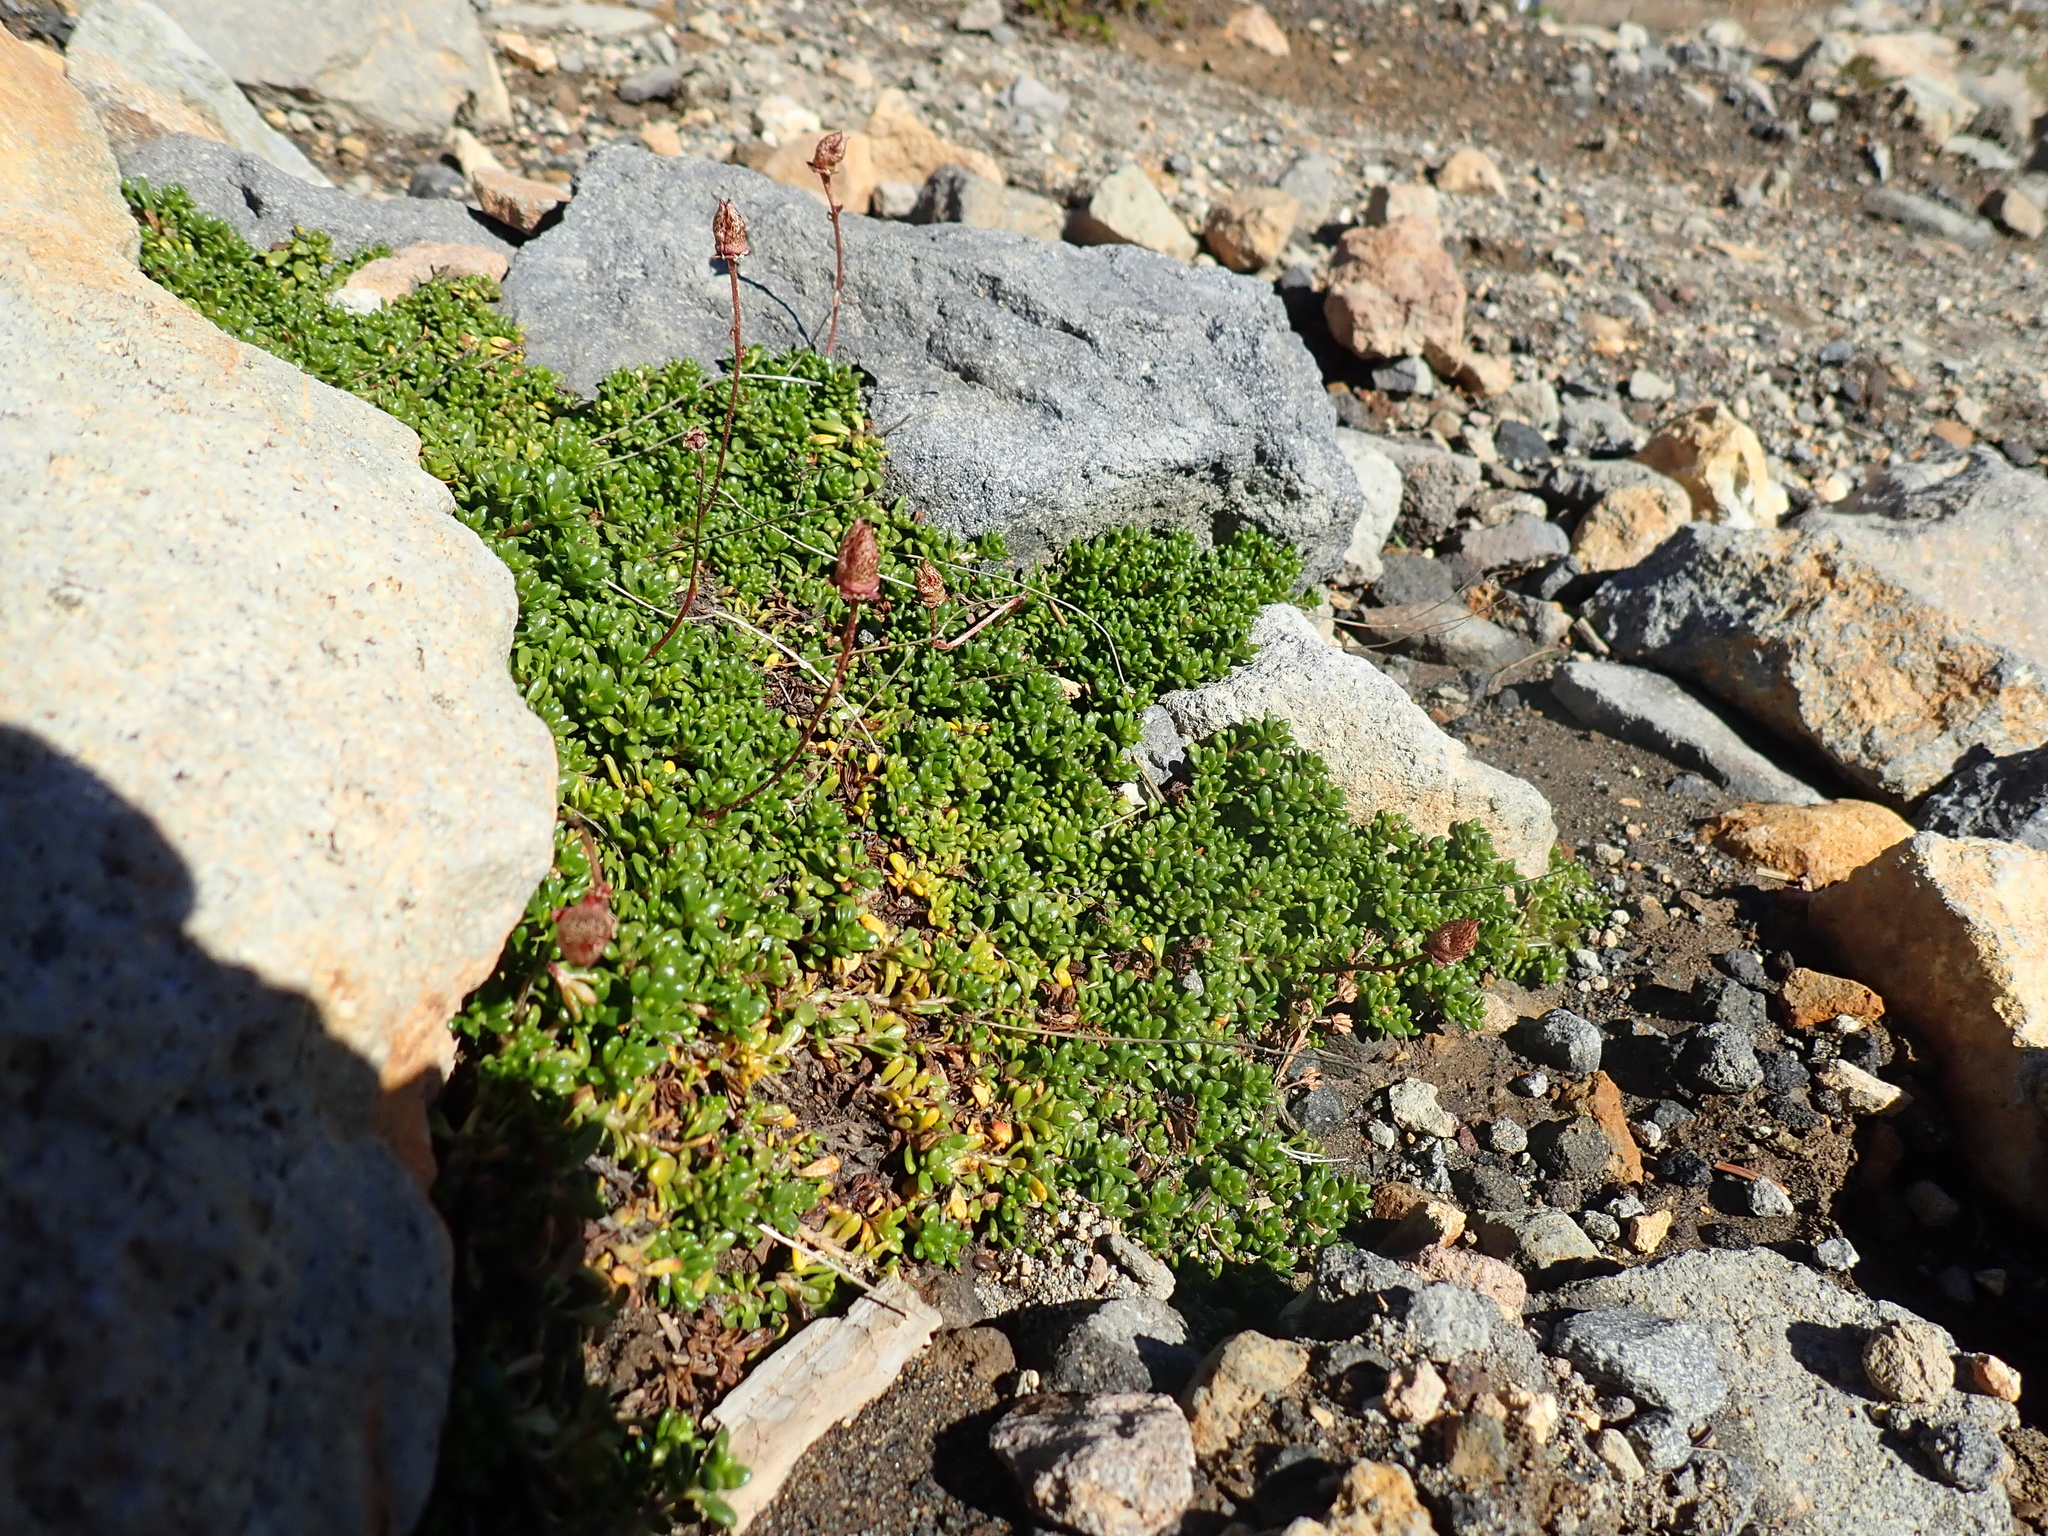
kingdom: Plantae
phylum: Tracheophyta
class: Magnoliopsida
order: Saxifragales
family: Saxifragaceae
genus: Micranthes
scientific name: Micranthes tolmiei
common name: Tolmie's saxifrage
